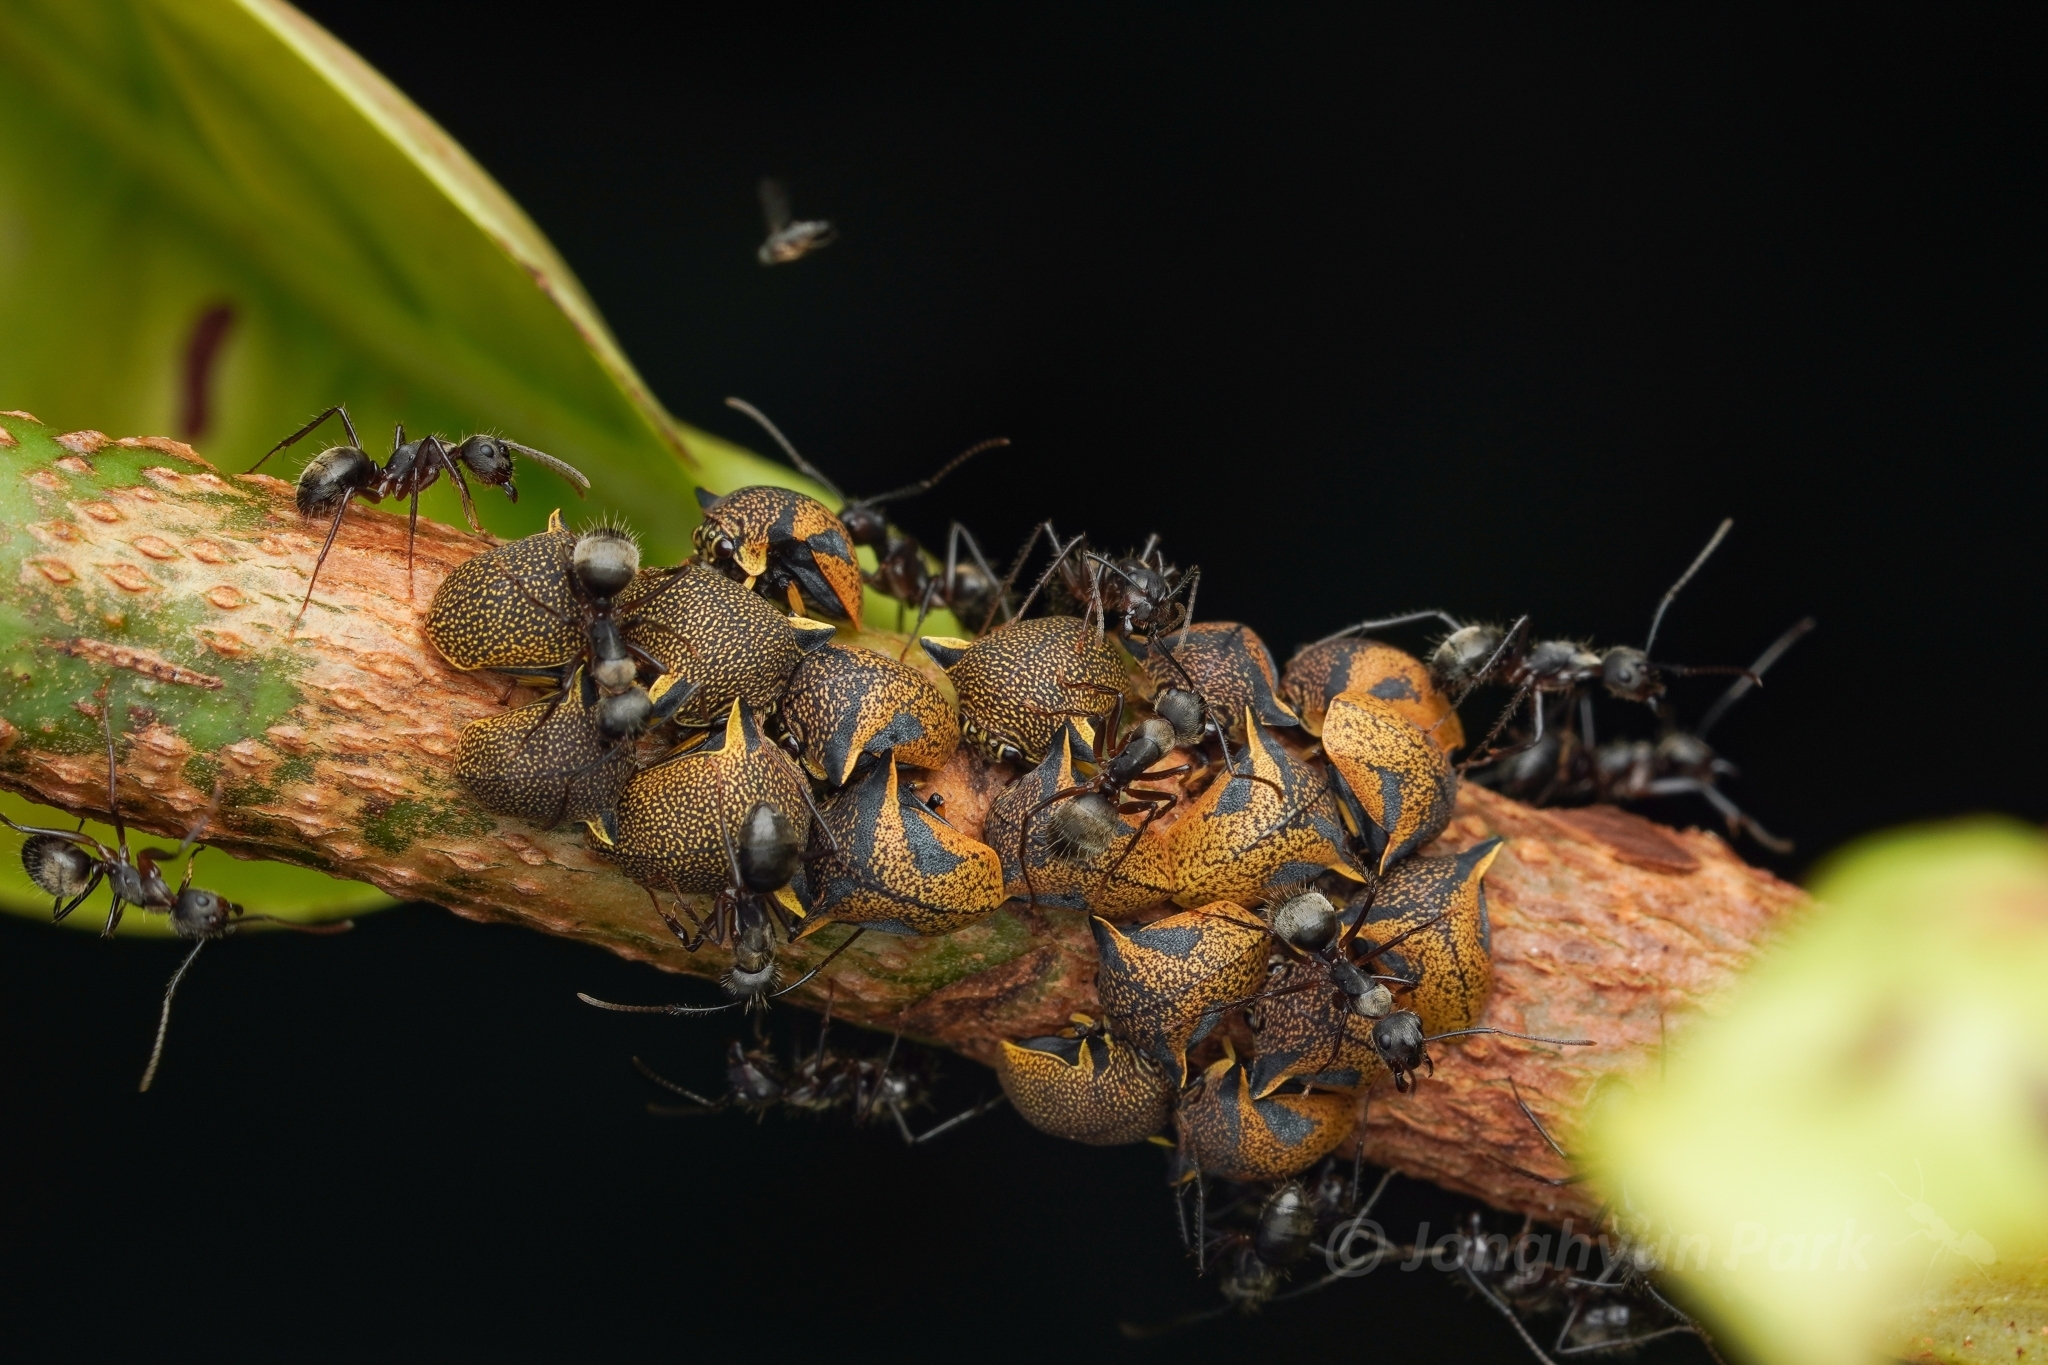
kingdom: Animalia
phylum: Arthropoda
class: Insecta
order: Hymenoptera
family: Formicidae
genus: Camponotus
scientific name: Camponotus femoratus
